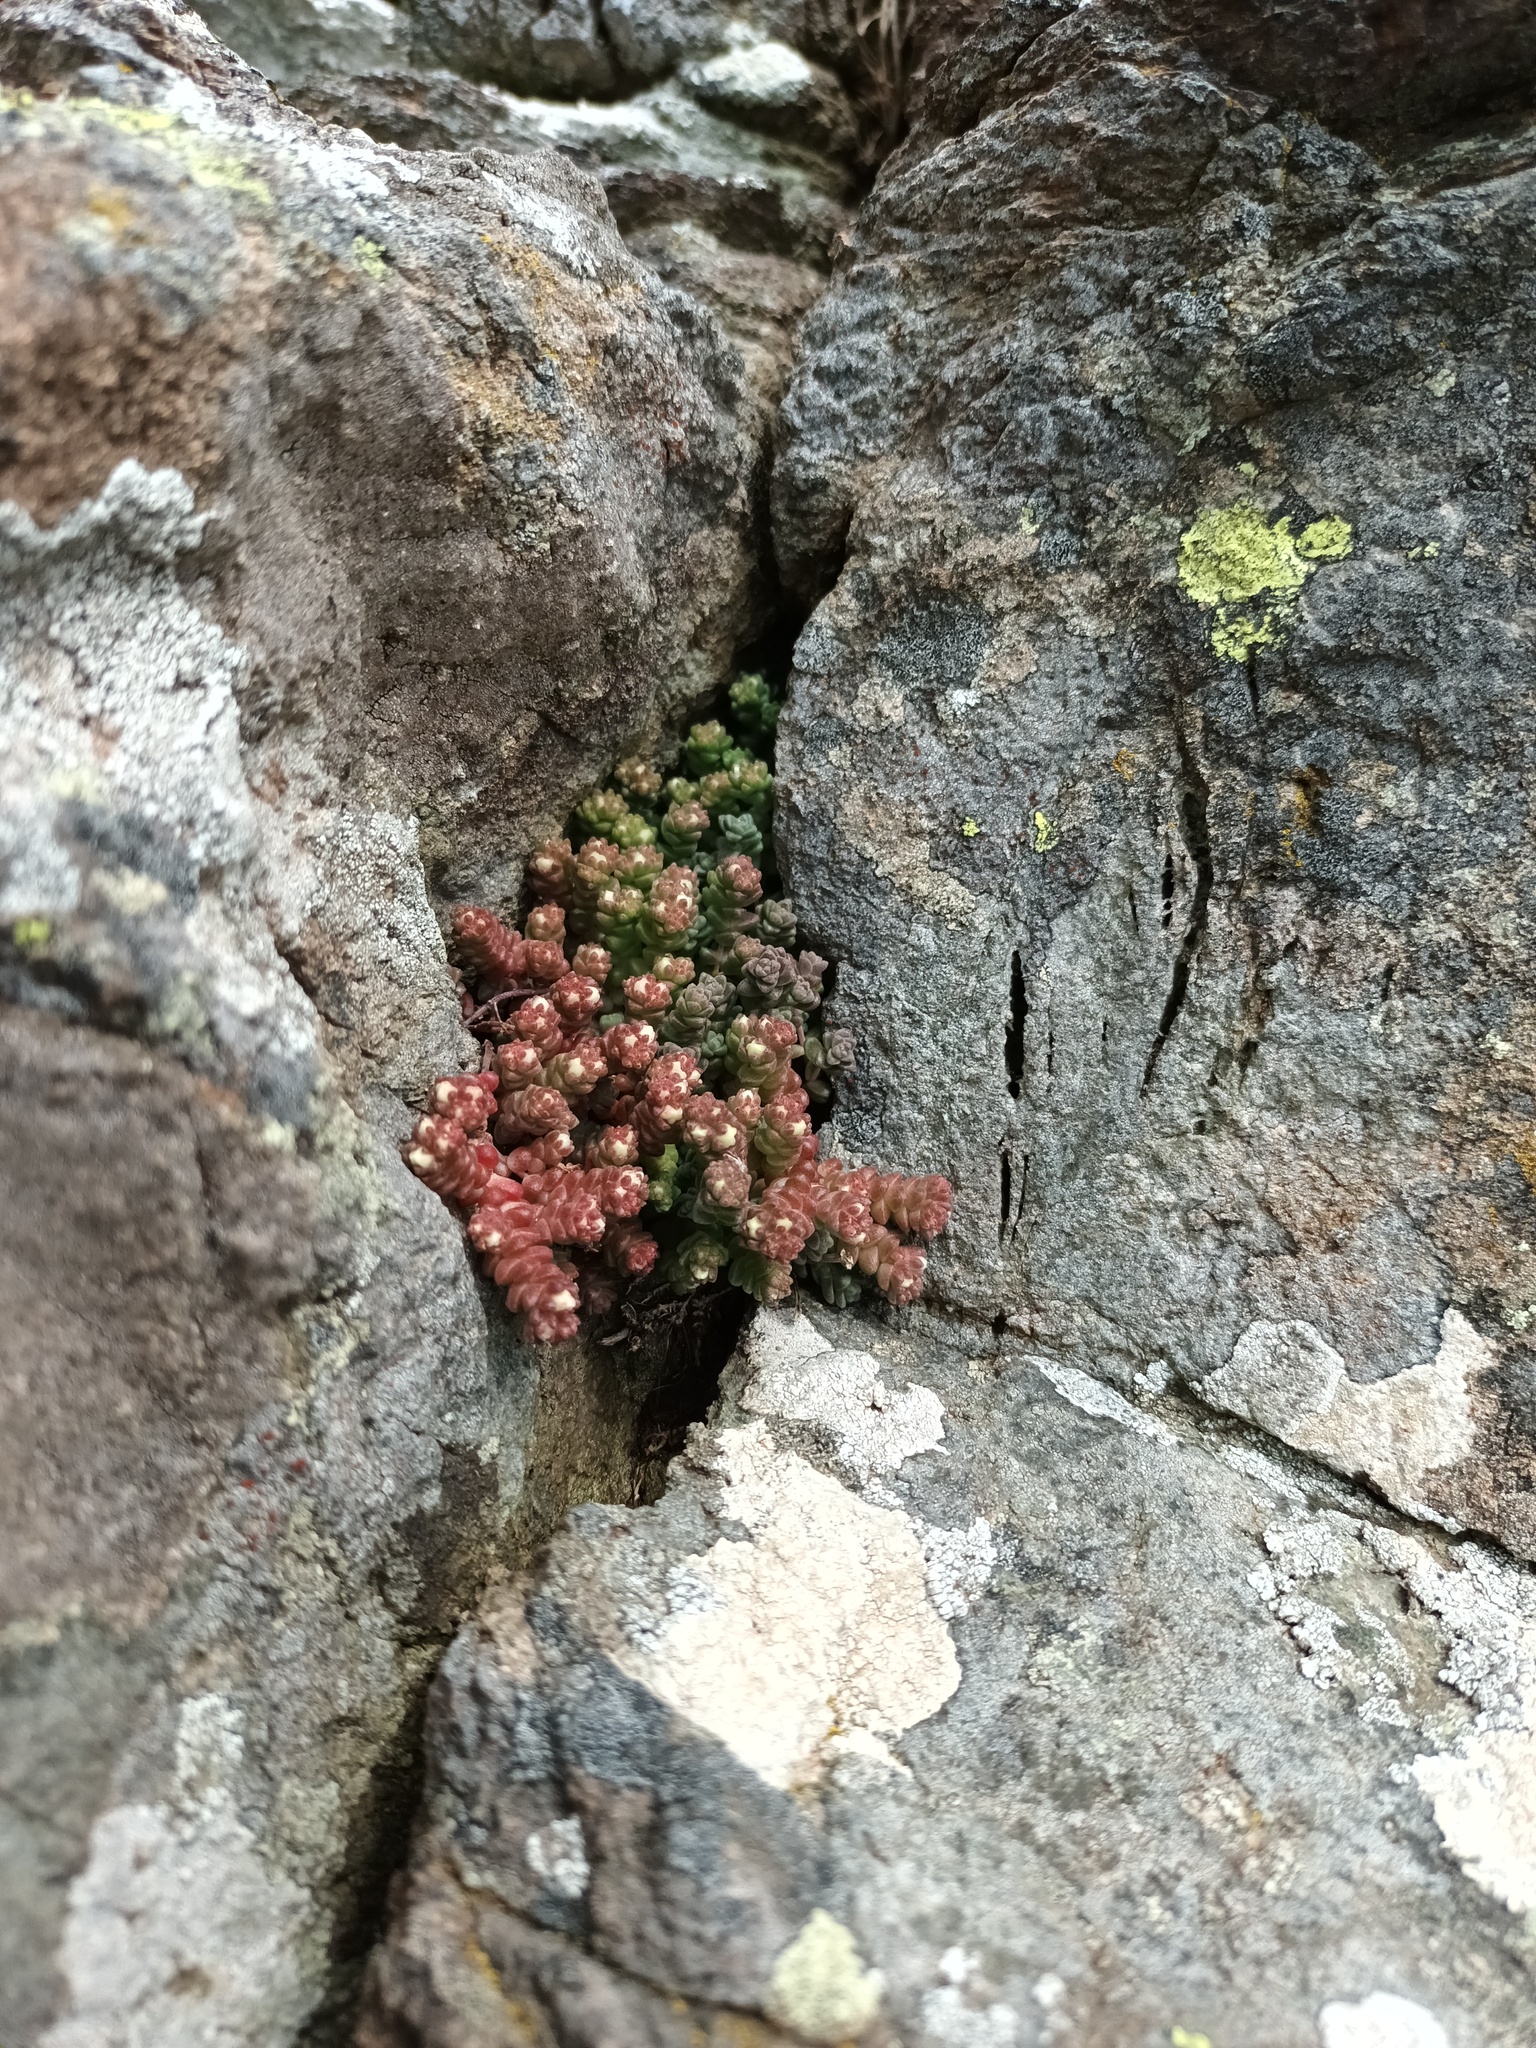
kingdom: Plantae
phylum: Tracheophyta
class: Magnoliopsida
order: Saxifragales
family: Crassulaceae
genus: Sedum
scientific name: Sedum anglicum
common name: English stonecrop
